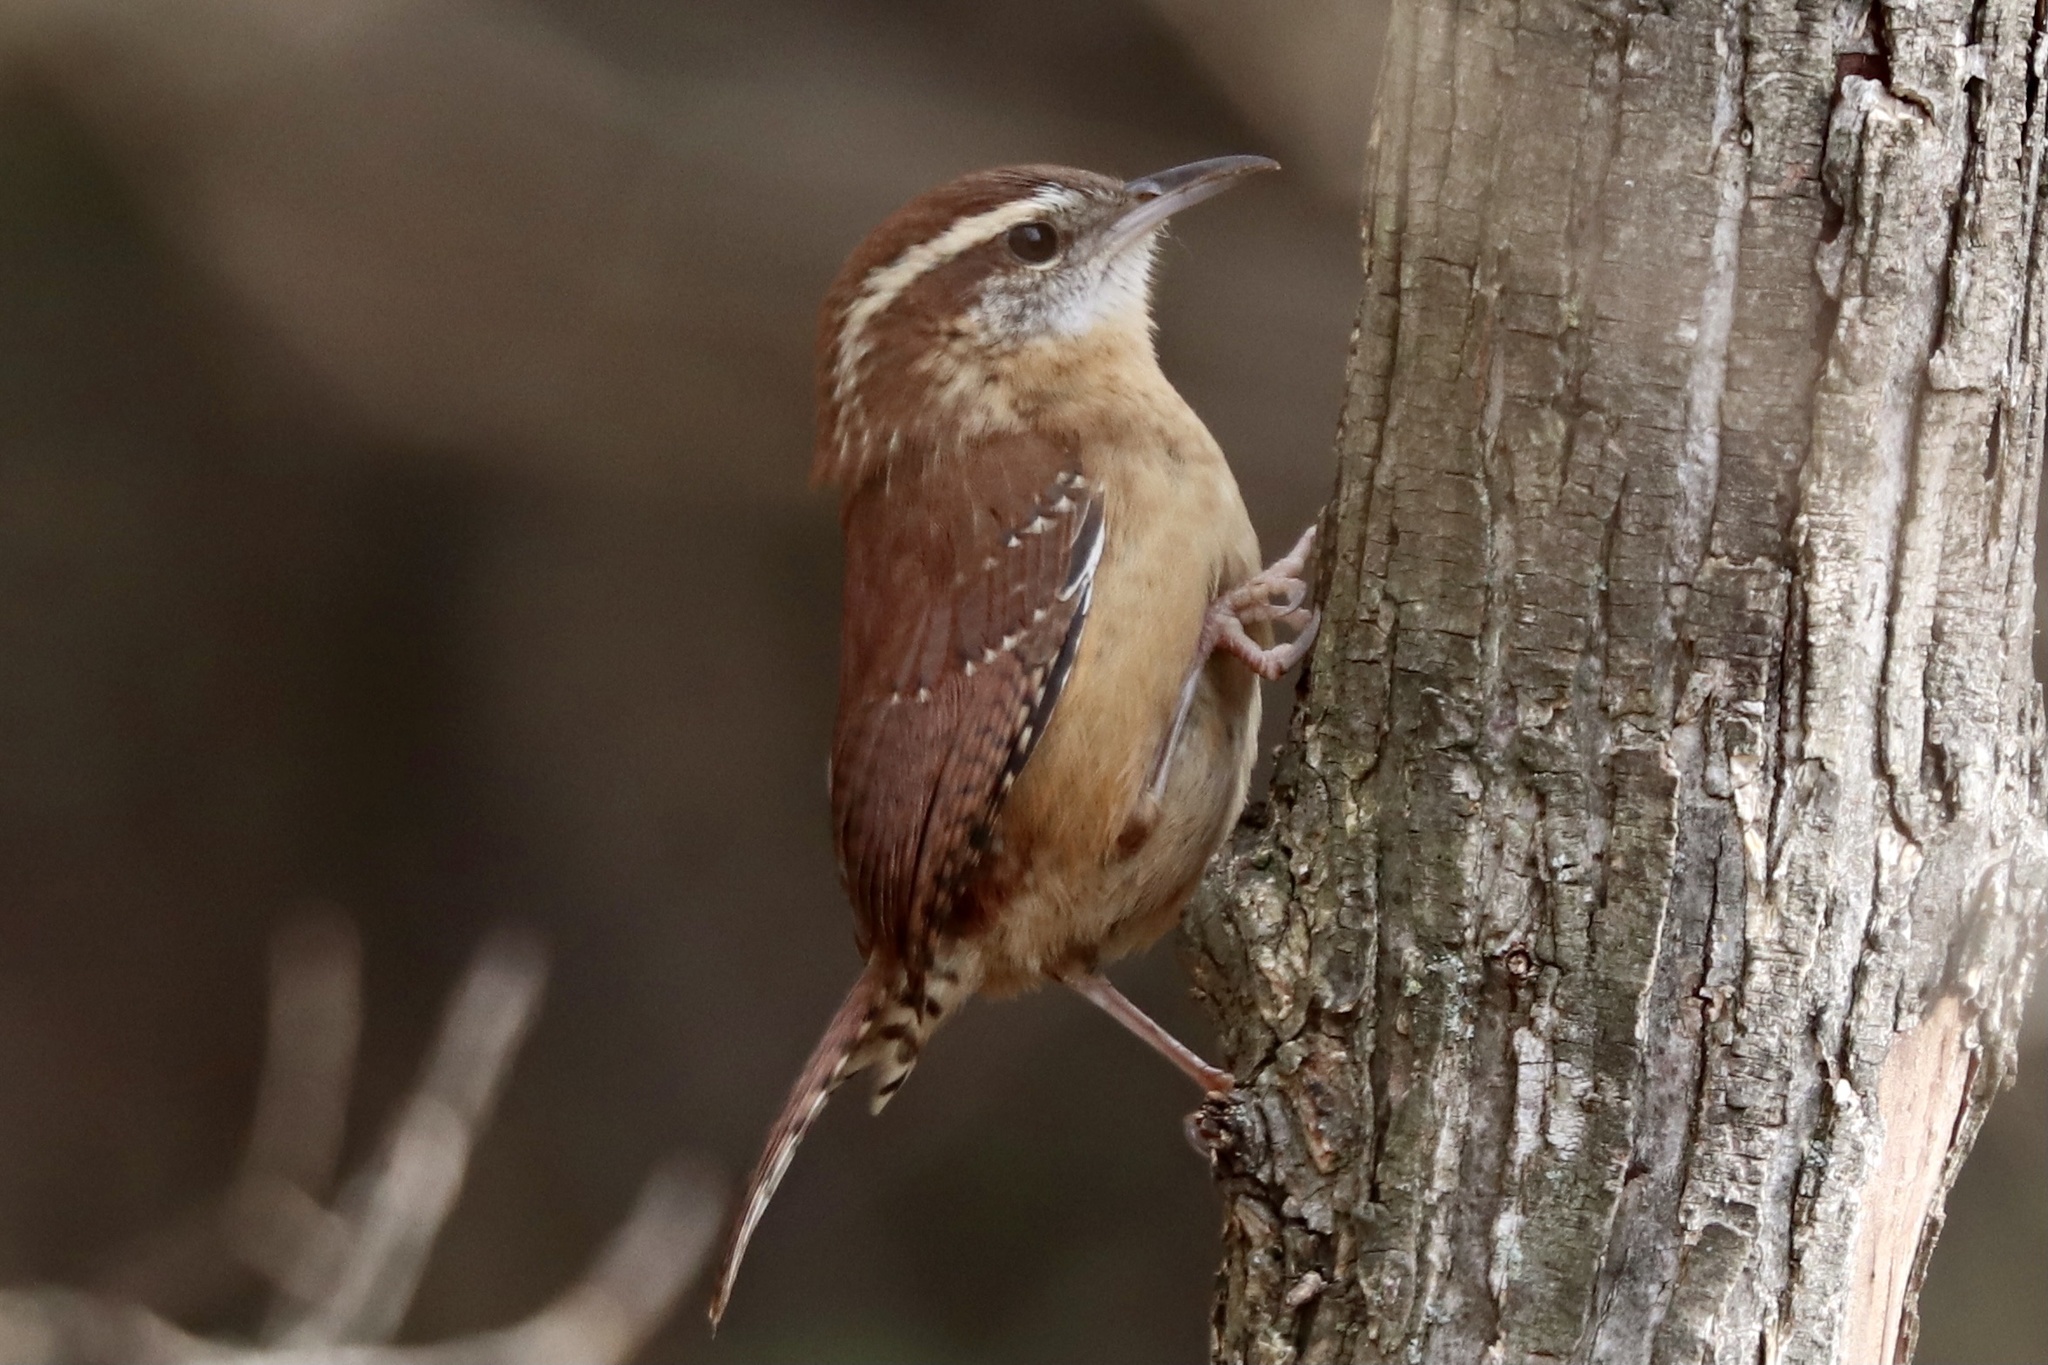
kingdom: Animalia
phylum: Chordata
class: Aves
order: Passeriformes
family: Troglodytidae
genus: Thryothorus
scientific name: Thryothorus ludovicianus
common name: Carolina wren
